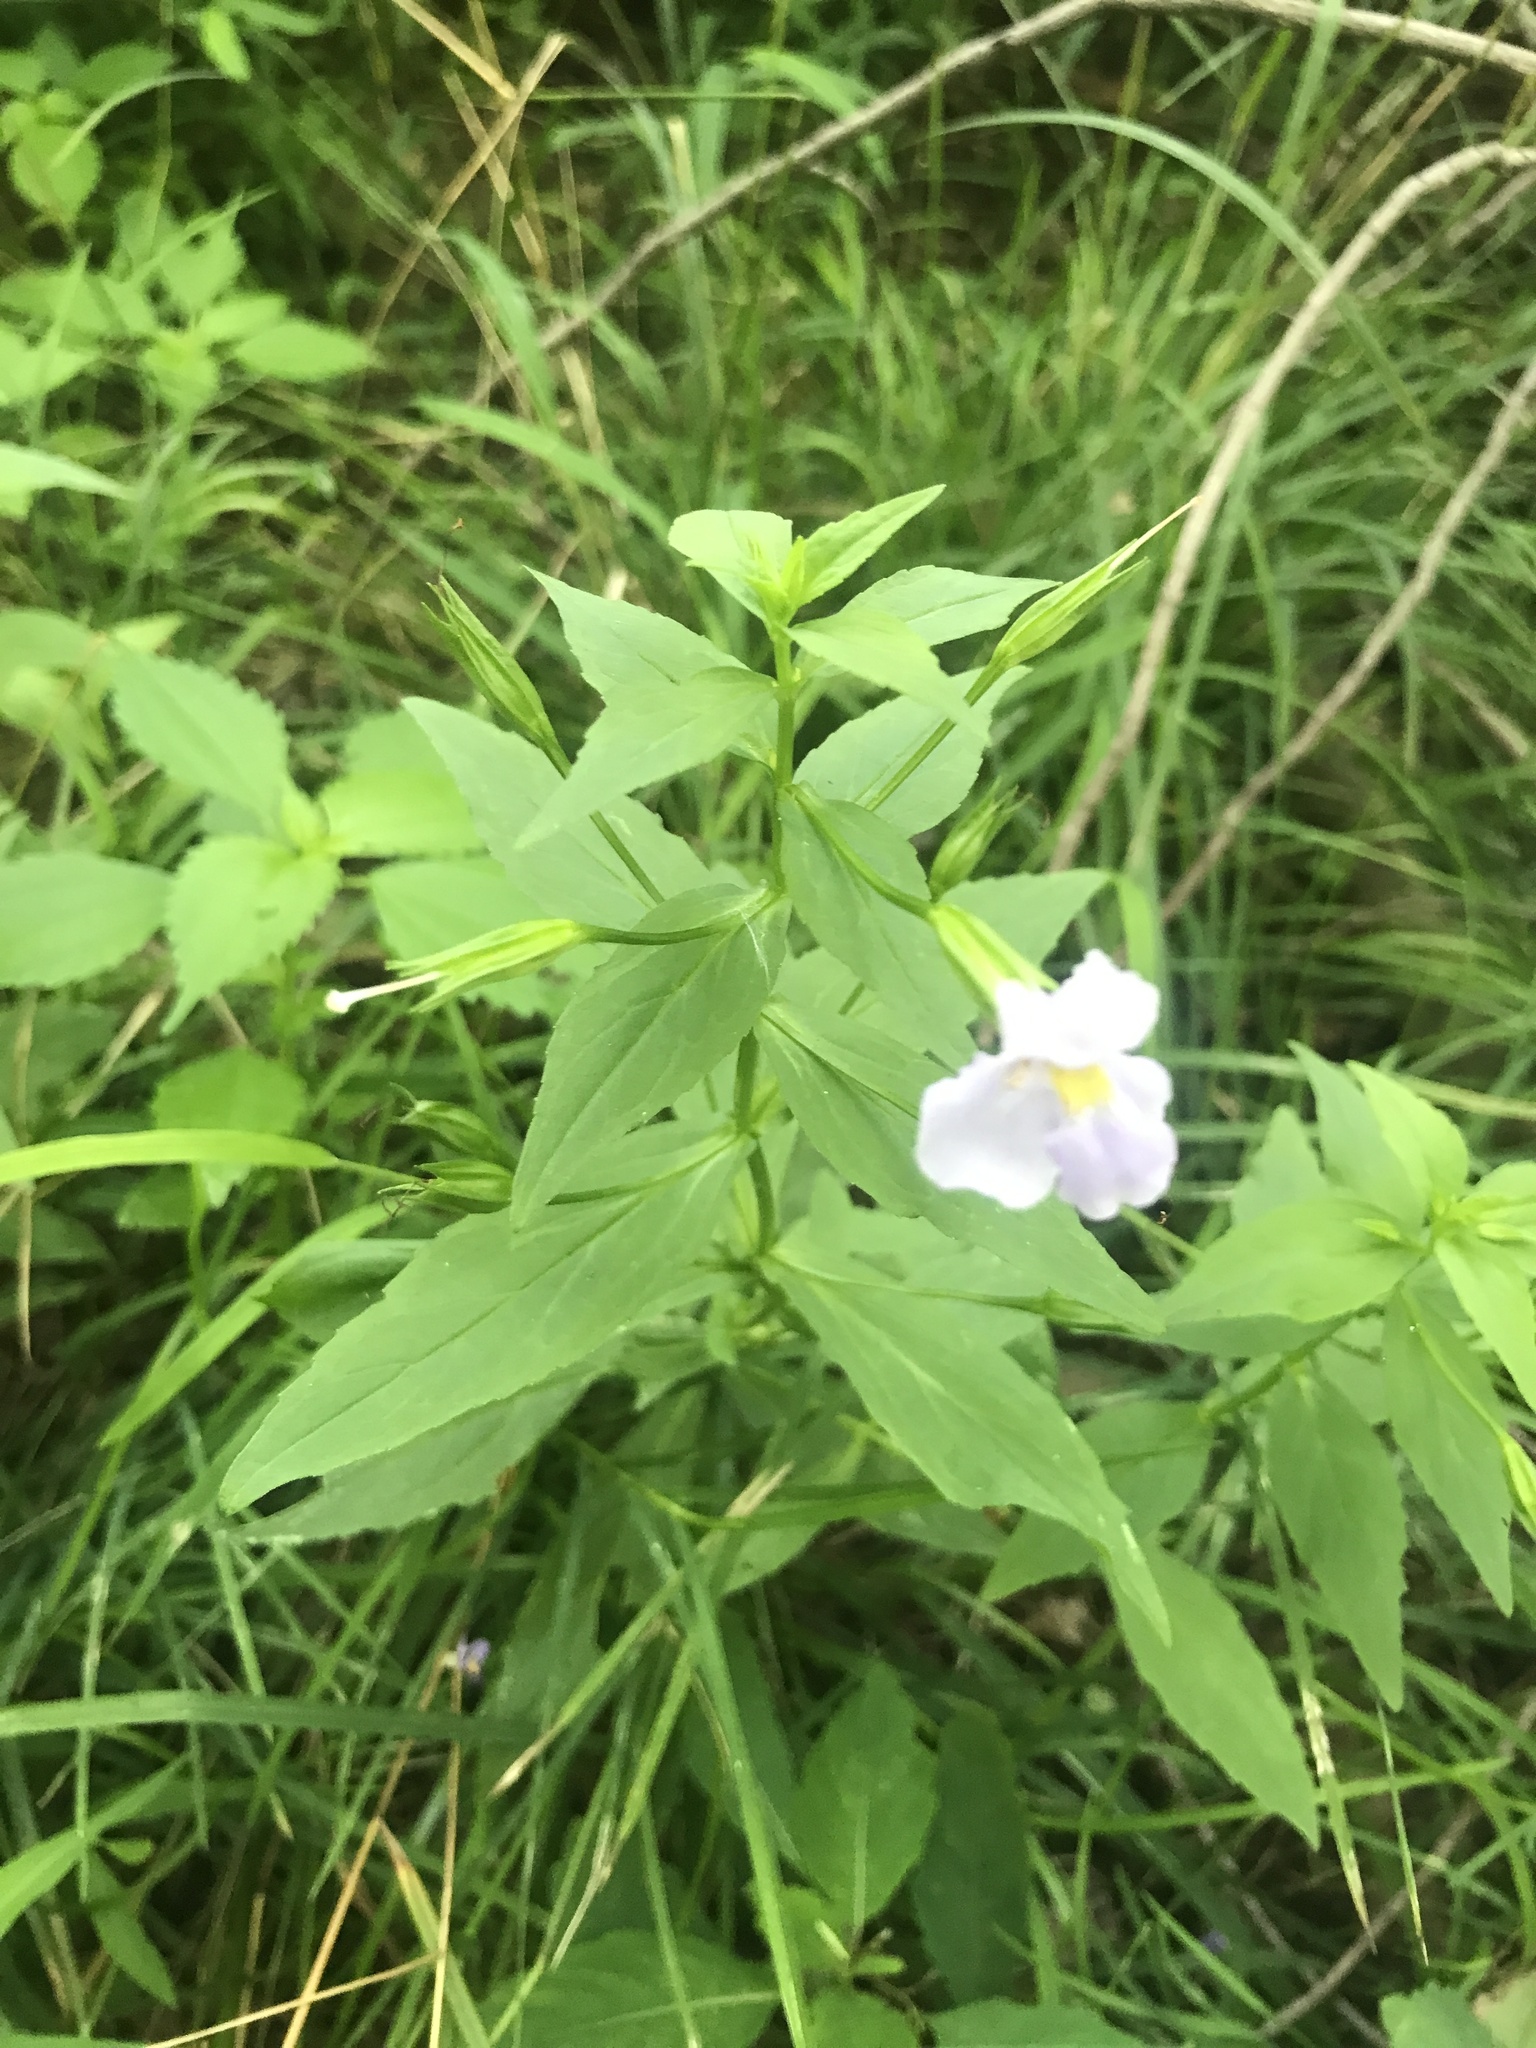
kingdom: Plantae
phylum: Tracheophyta
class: Magnoliopsida
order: Lamiales
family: Phrymaceae
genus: Mimulus
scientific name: Mimulus ringens
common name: Allegheny monkeyflower
